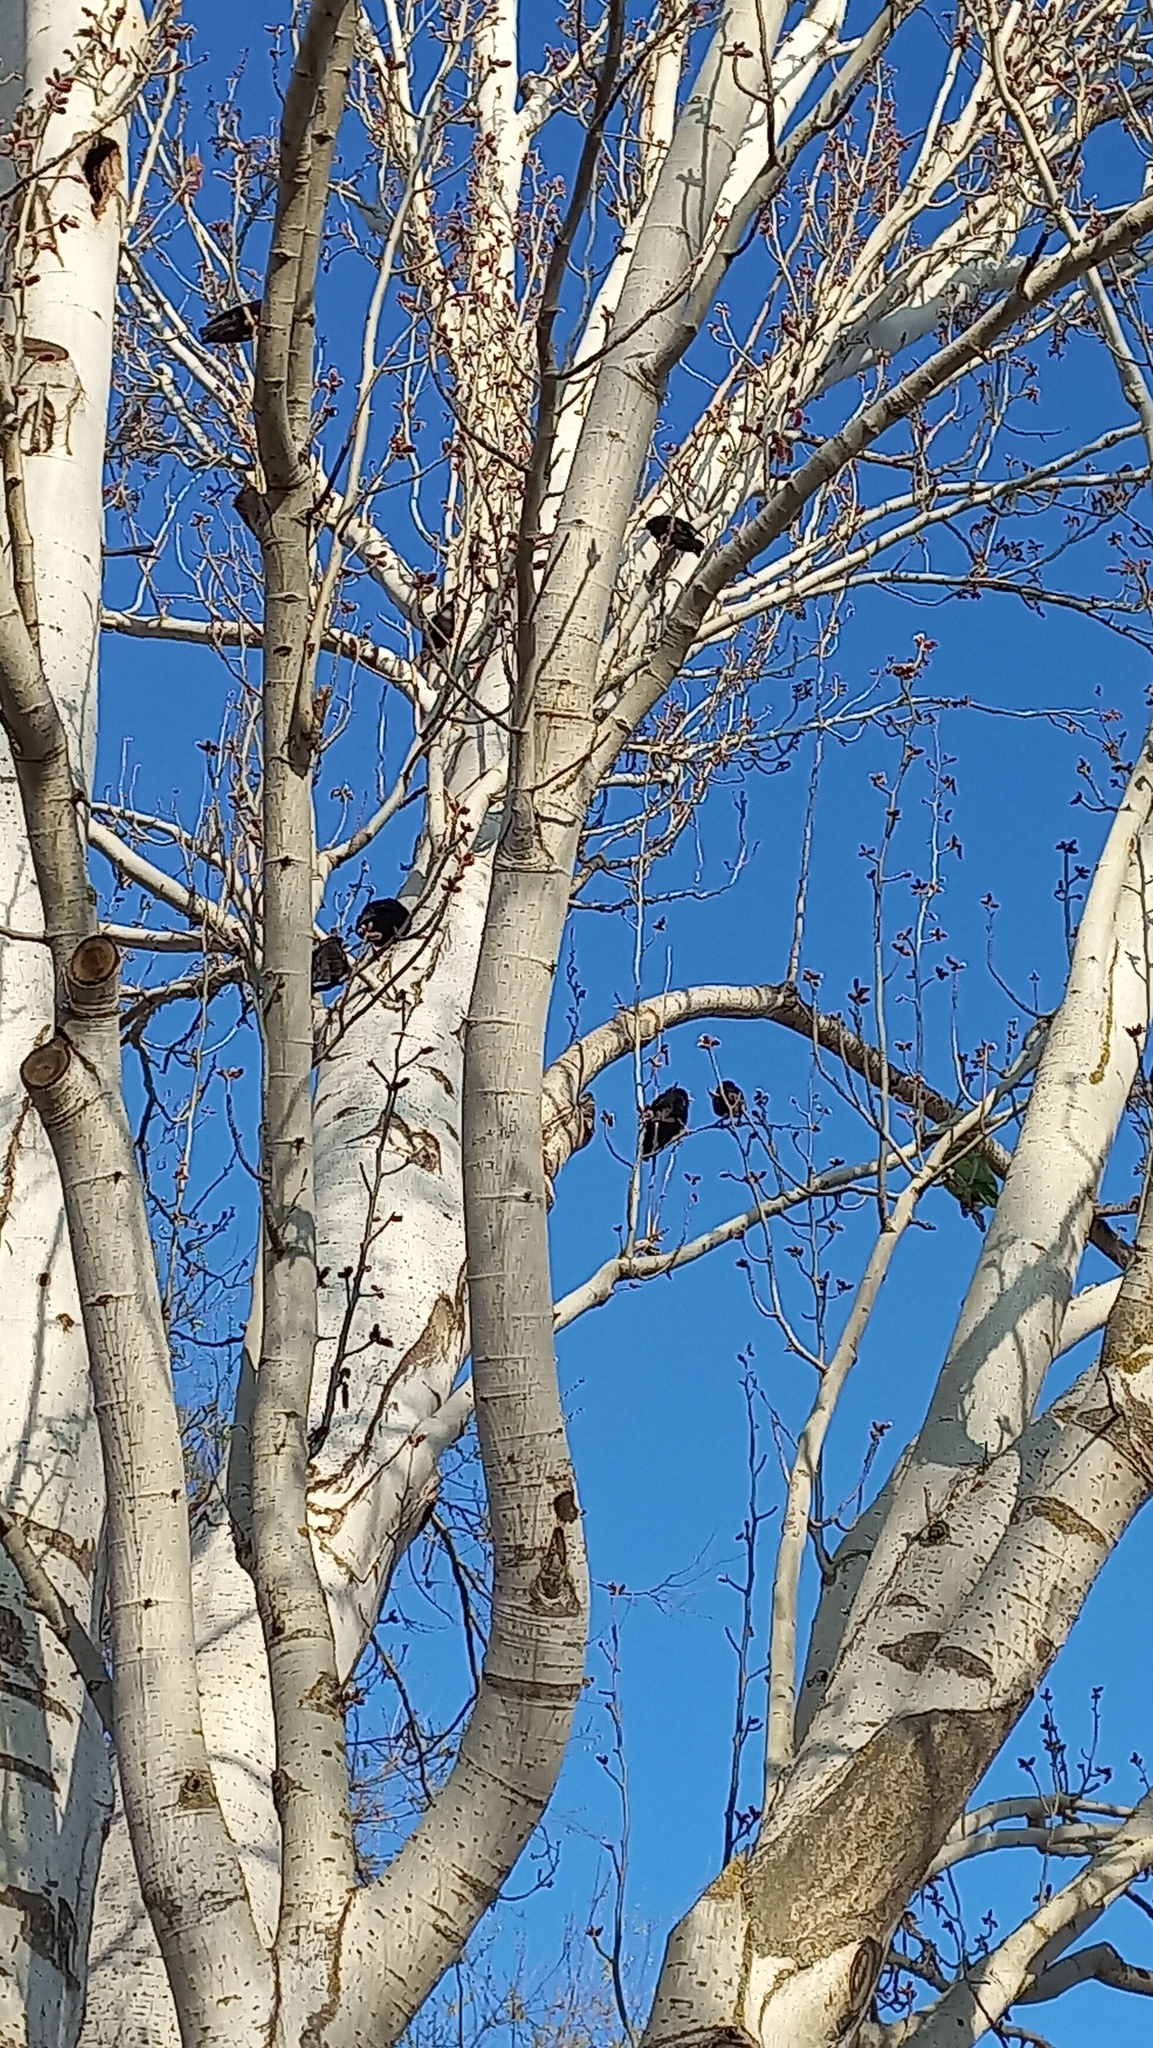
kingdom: Animalia
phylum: Chordata
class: Aves
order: Passeriformes
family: Sturnidae
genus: Sturnus
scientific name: Sturnus unicolor
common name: Spotless starling
